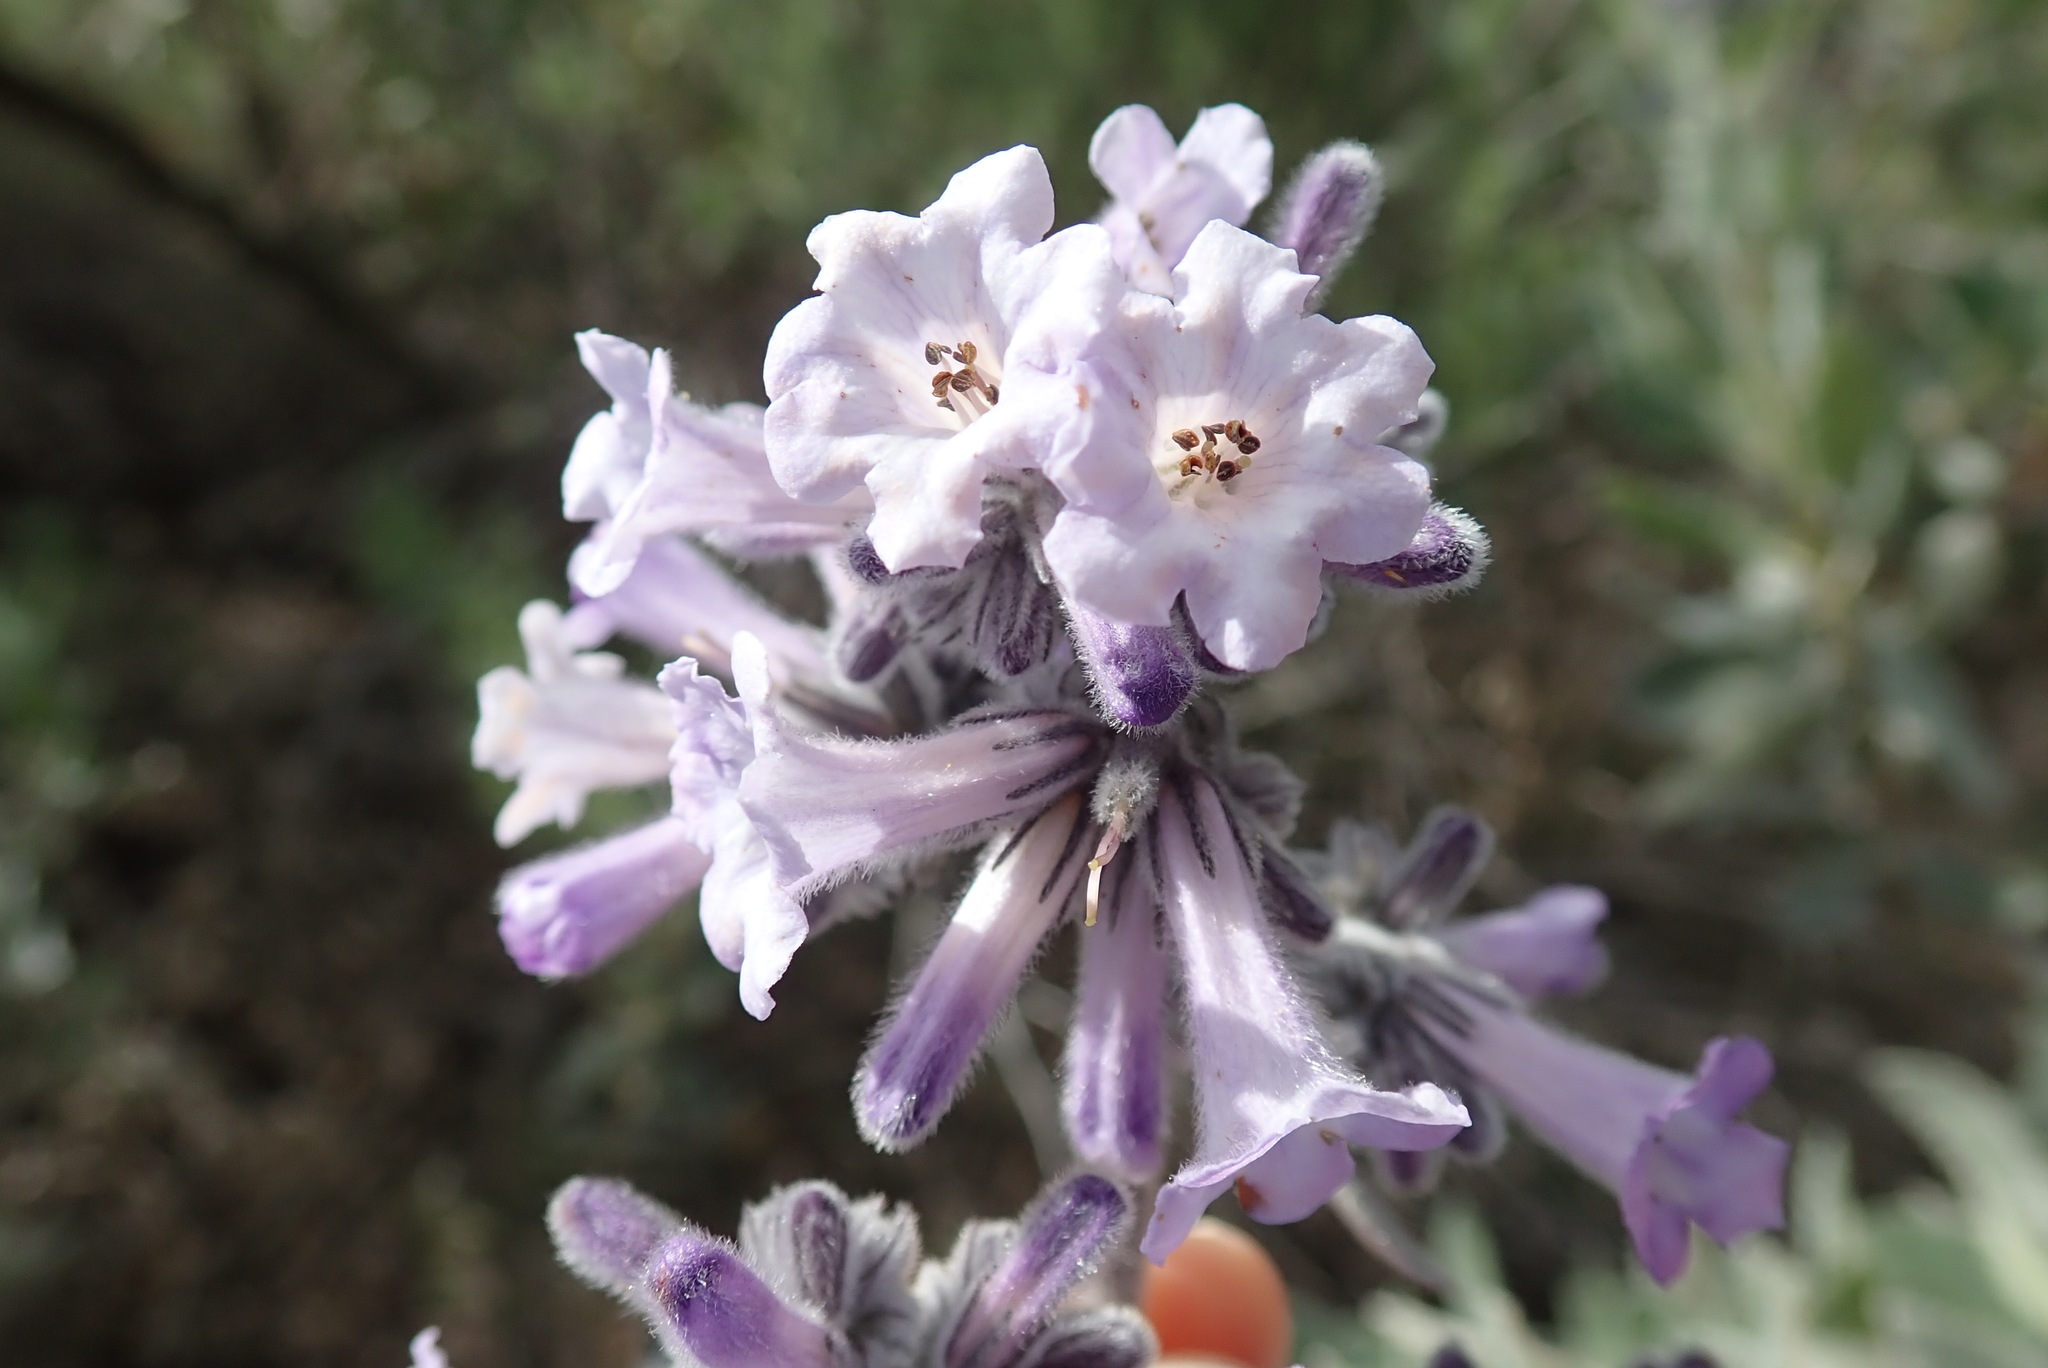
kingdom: Plantae
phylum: Tracheophyta
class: Magnoliopsida
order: Boraginales
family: Namaceae
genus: Eriodictyon
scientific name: Eriodictyon crassifolium
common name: Thick-leaf yerba-santa
